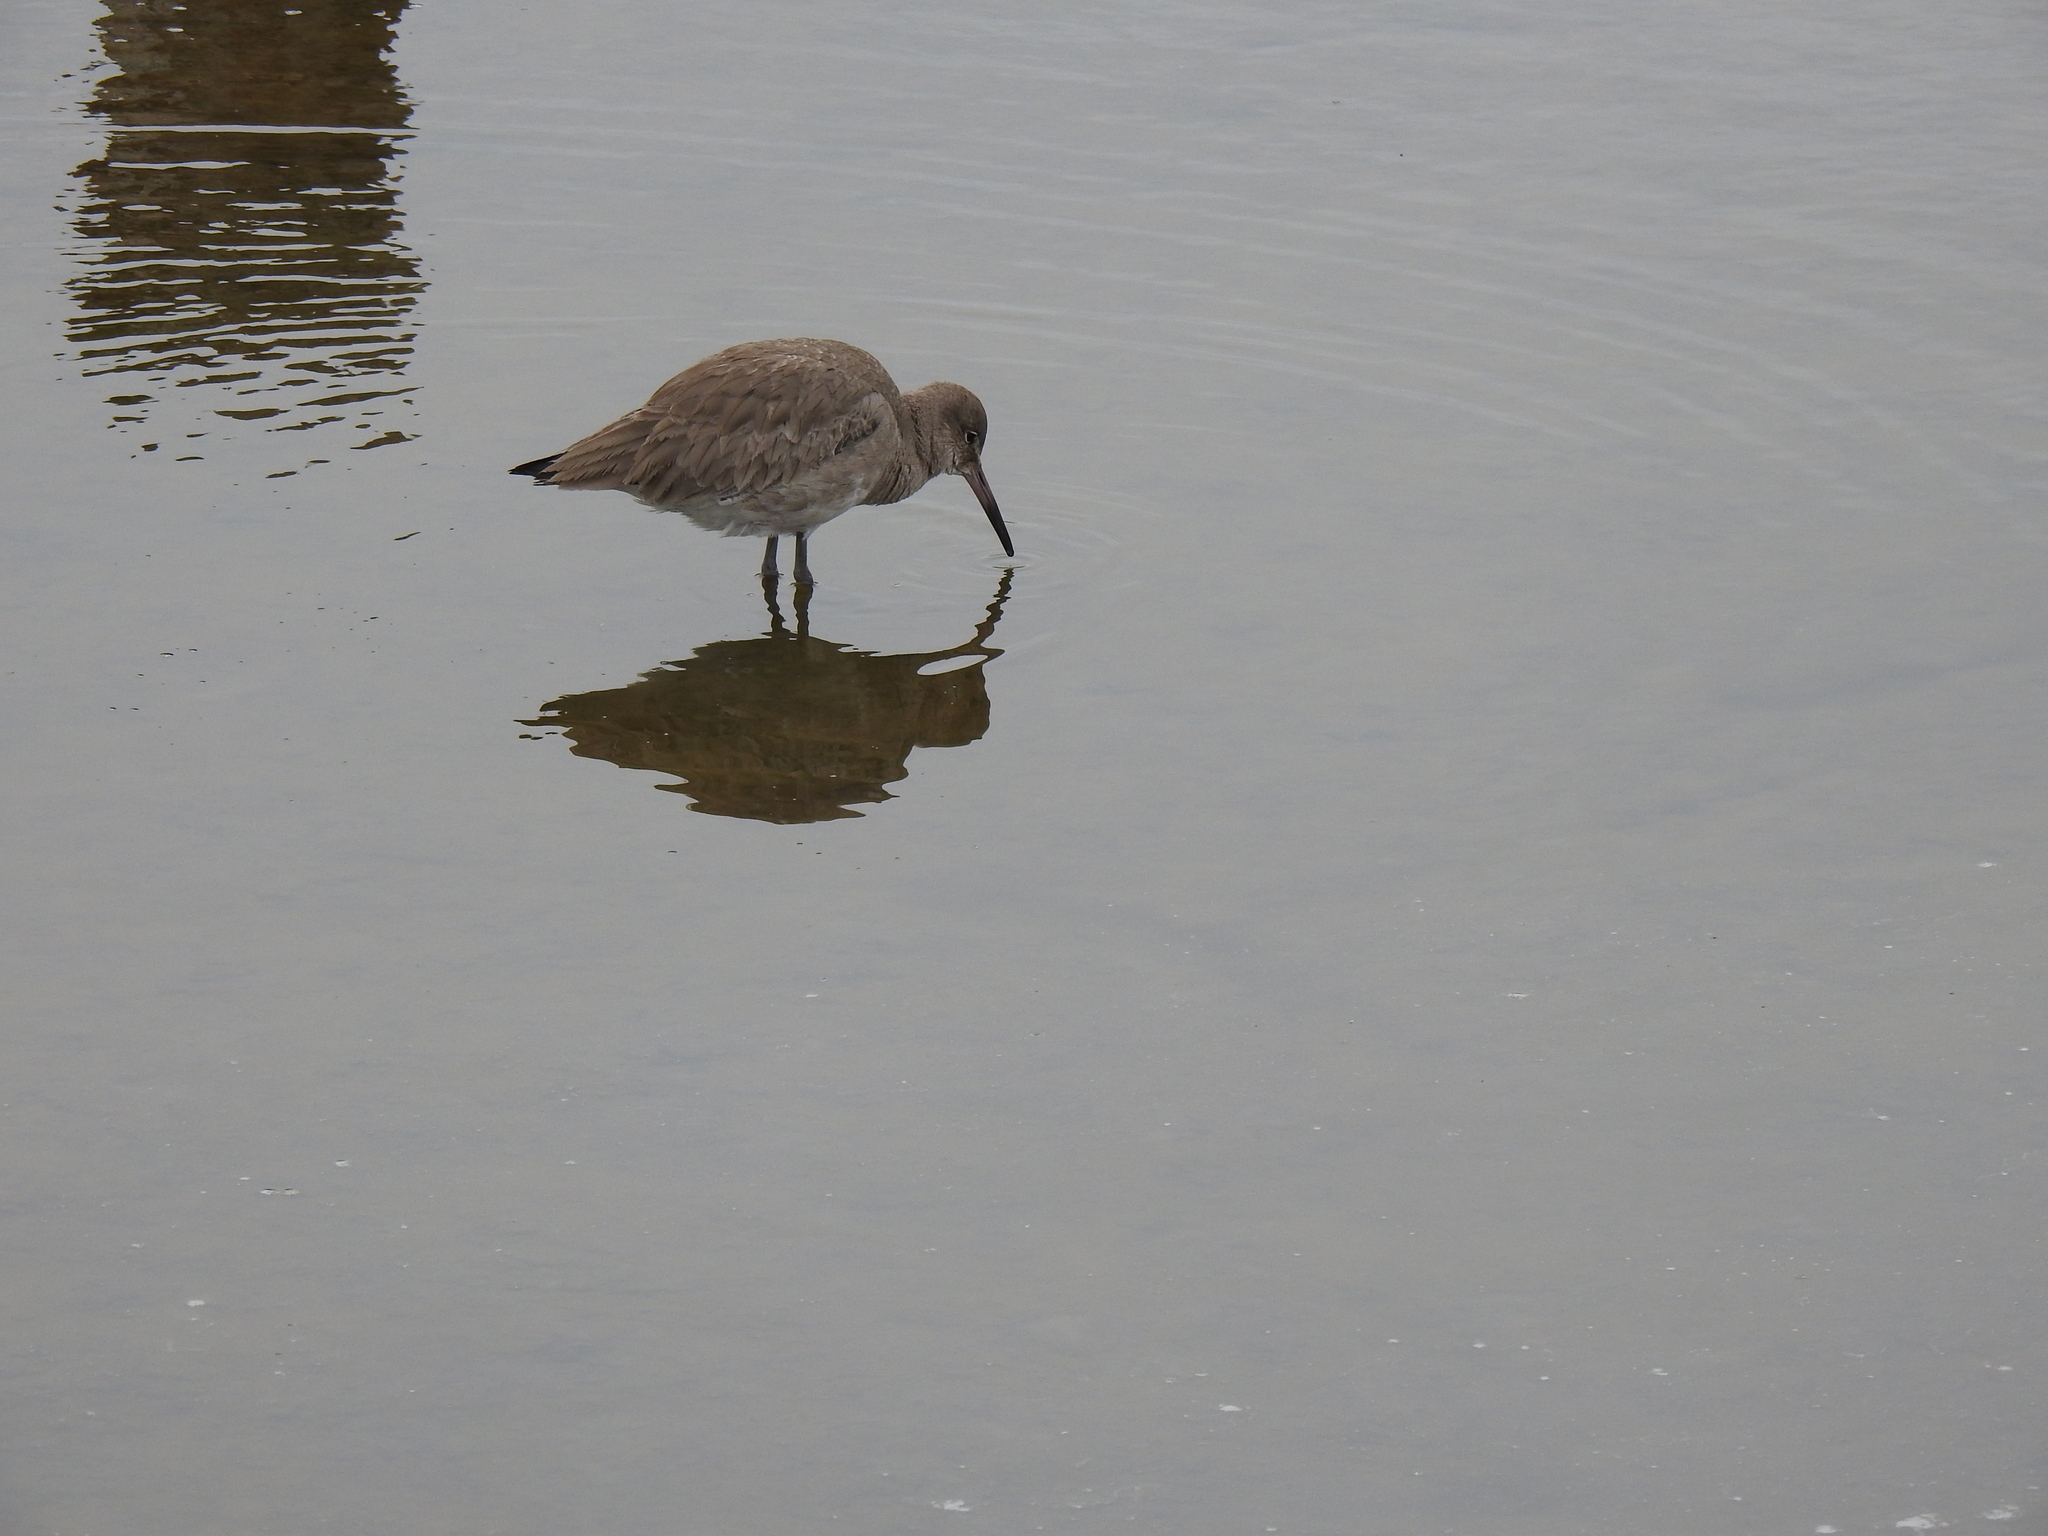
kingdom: Animalia
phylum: Chordata
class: Aves
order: Charadriiformes
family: Scolopacidae
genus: Tringa
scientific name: Tringa semipalmata
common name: Willet
